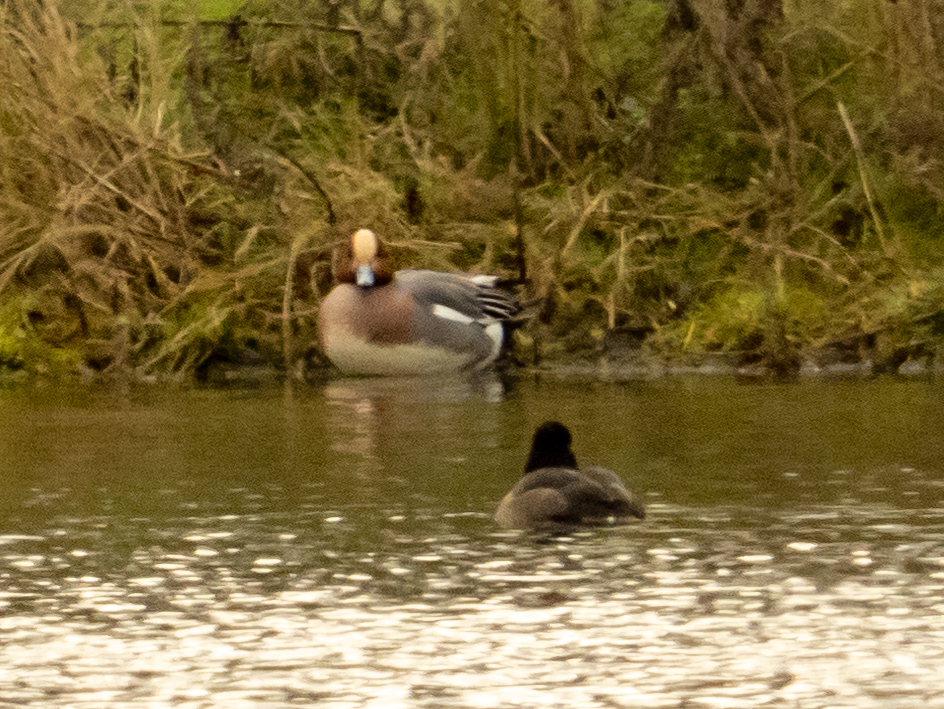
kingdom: Animalia
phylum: Chordata
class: Aves
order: Anseriformes
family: Anatidae
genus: Mareca
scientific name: Mareca penelope
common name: Eurasian wigeon
